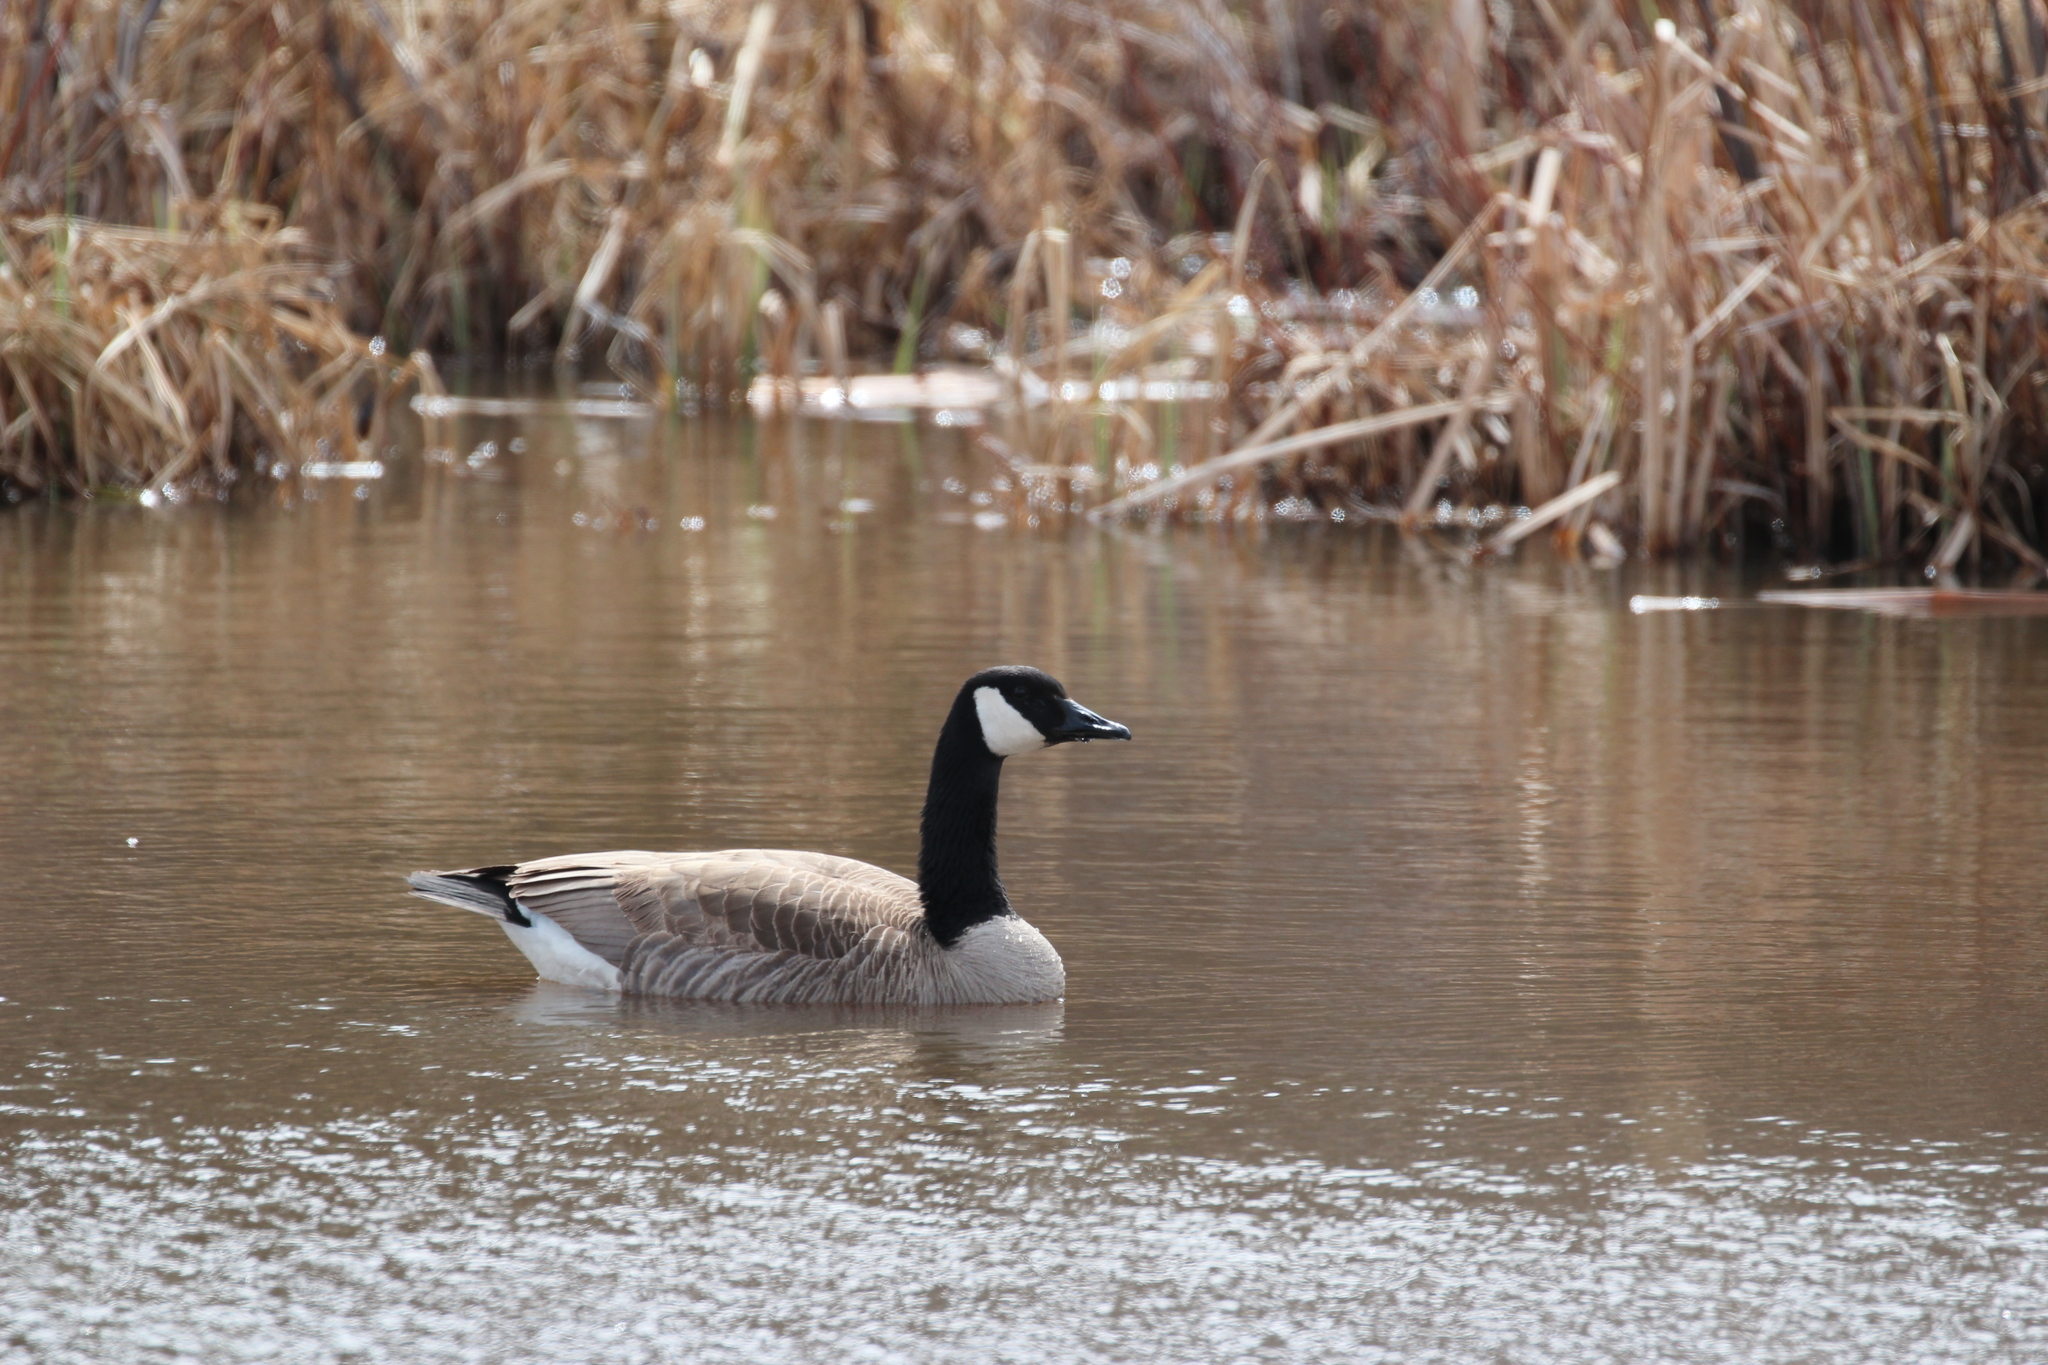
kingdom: Animalia
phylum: Chordata
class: Aves
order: Anseriformes
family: Anatidae
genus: Branta
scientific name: Branta canadensis
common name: Canada goose
